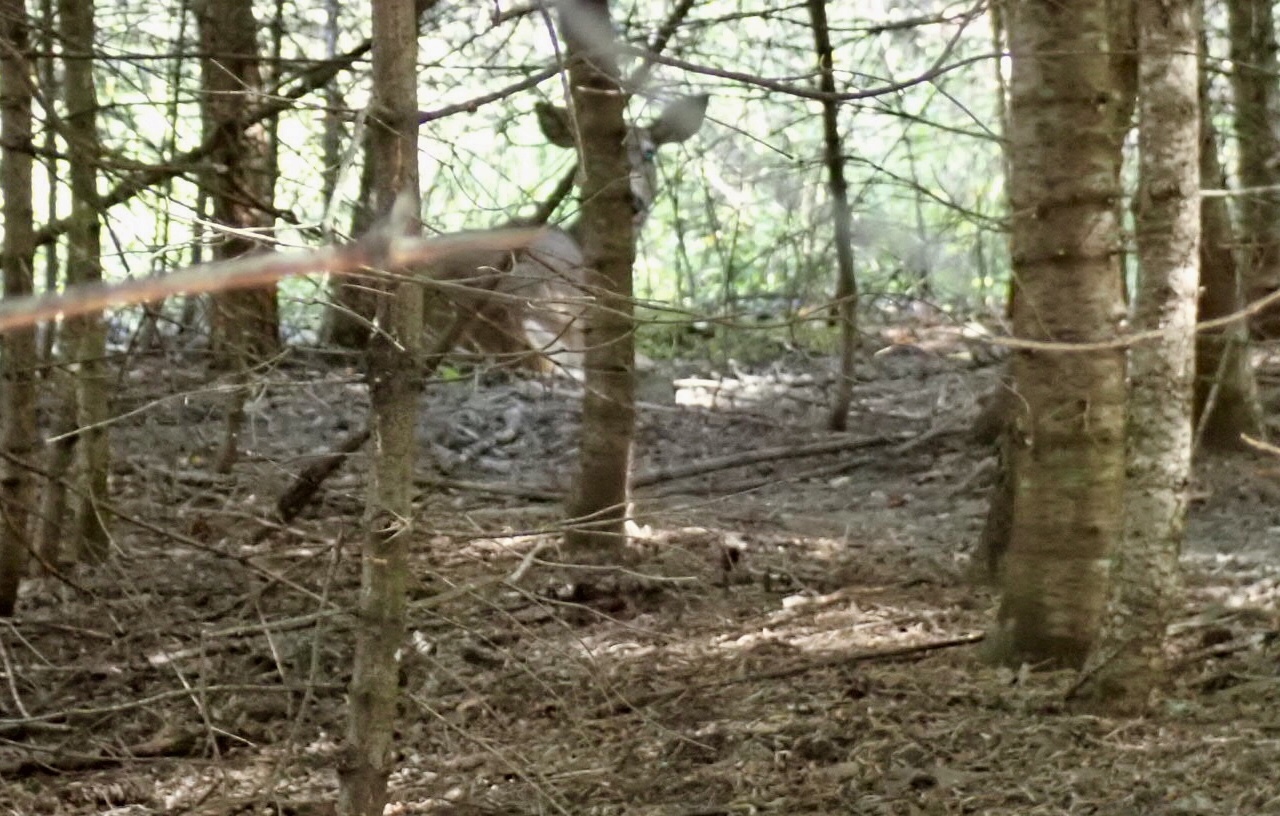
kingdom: Animalia
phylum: Chordata
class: Mammalia
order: Artiodactyla
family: Cervidae
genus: Odocoileus
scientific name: Odocoileus virginianus
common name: White-tailed deer
